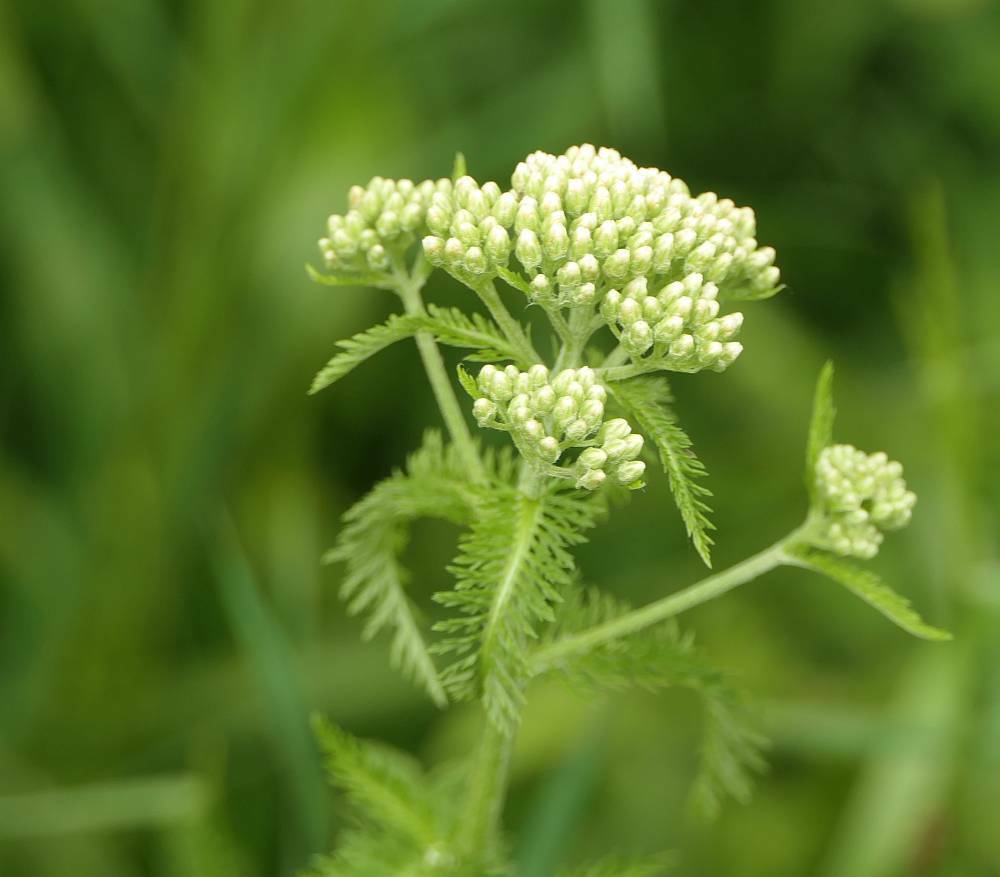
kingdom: Plantae
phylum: Tracheophyta
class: Magnoliopsida
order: Asterales
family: Asteraceae
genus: Achillea
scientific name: Achillea millefolium
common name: Yarrow
